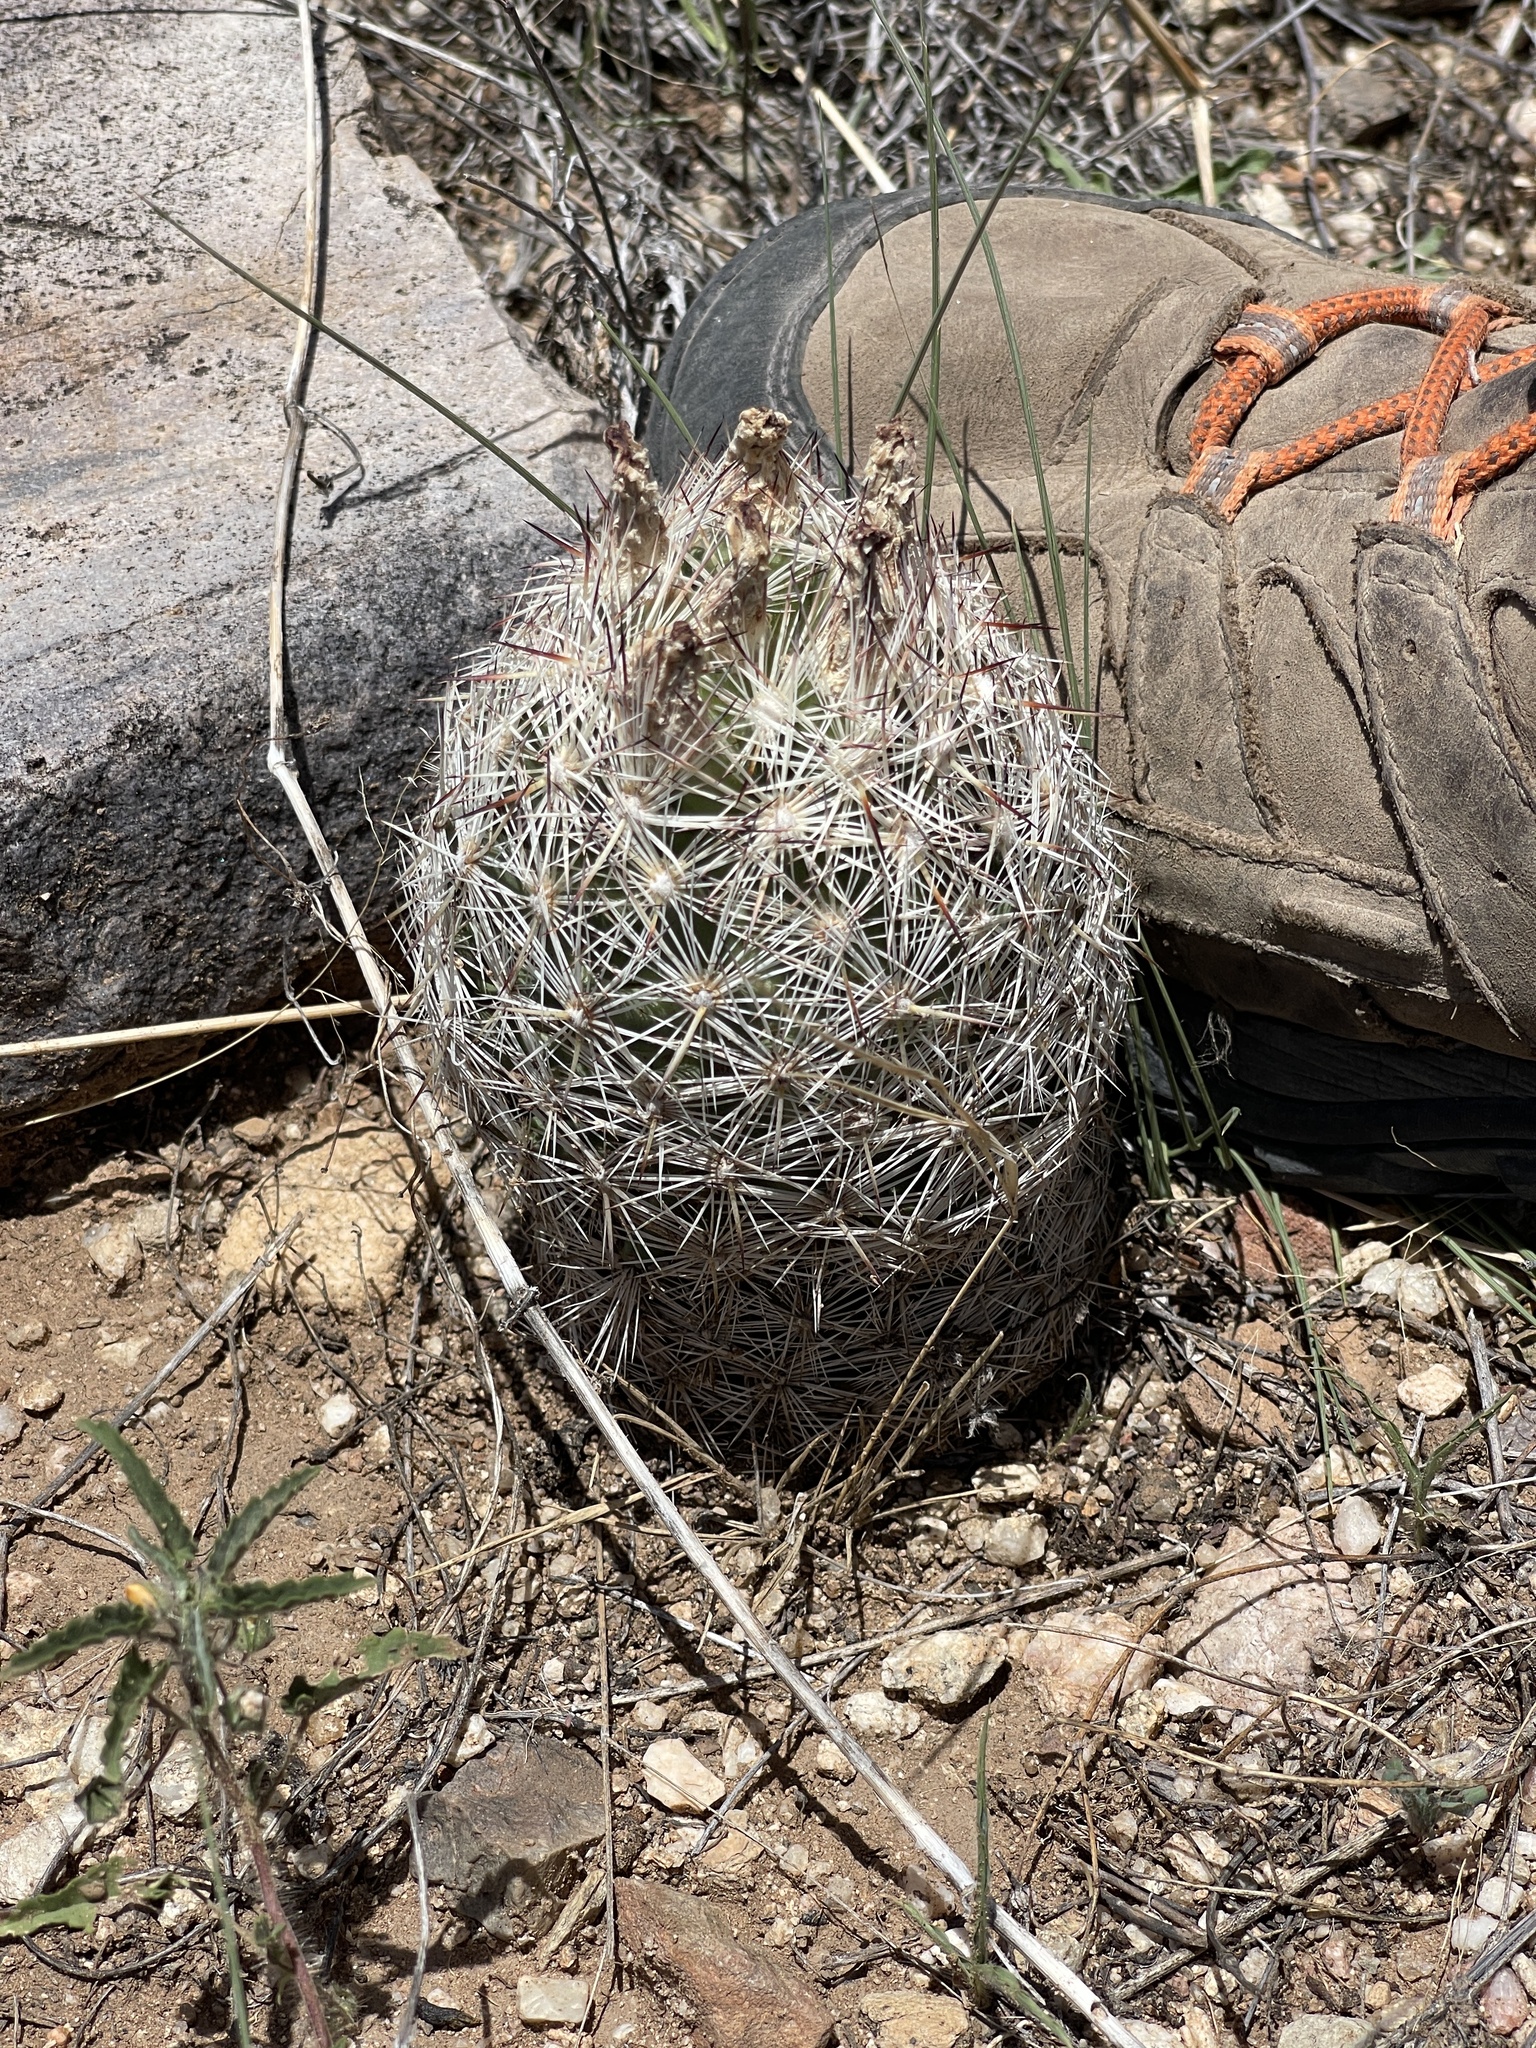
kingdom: Plantae
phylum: Tracheophyta
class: Magnoliopsida
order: Caryophyllales
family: Cactaceae
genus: Pelecyphora
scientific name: Pelecyphora vivipara
